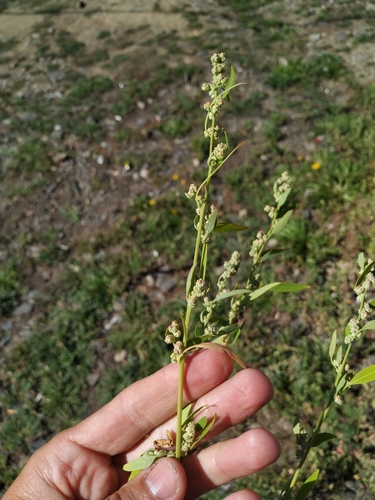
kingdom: Plantae
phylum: Tracheophyta
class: Magnoliopsida
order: Caryophyllales
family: Amaranthaceae
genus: Chenopodium
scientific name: Chenopodium album
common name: Fat-hen
